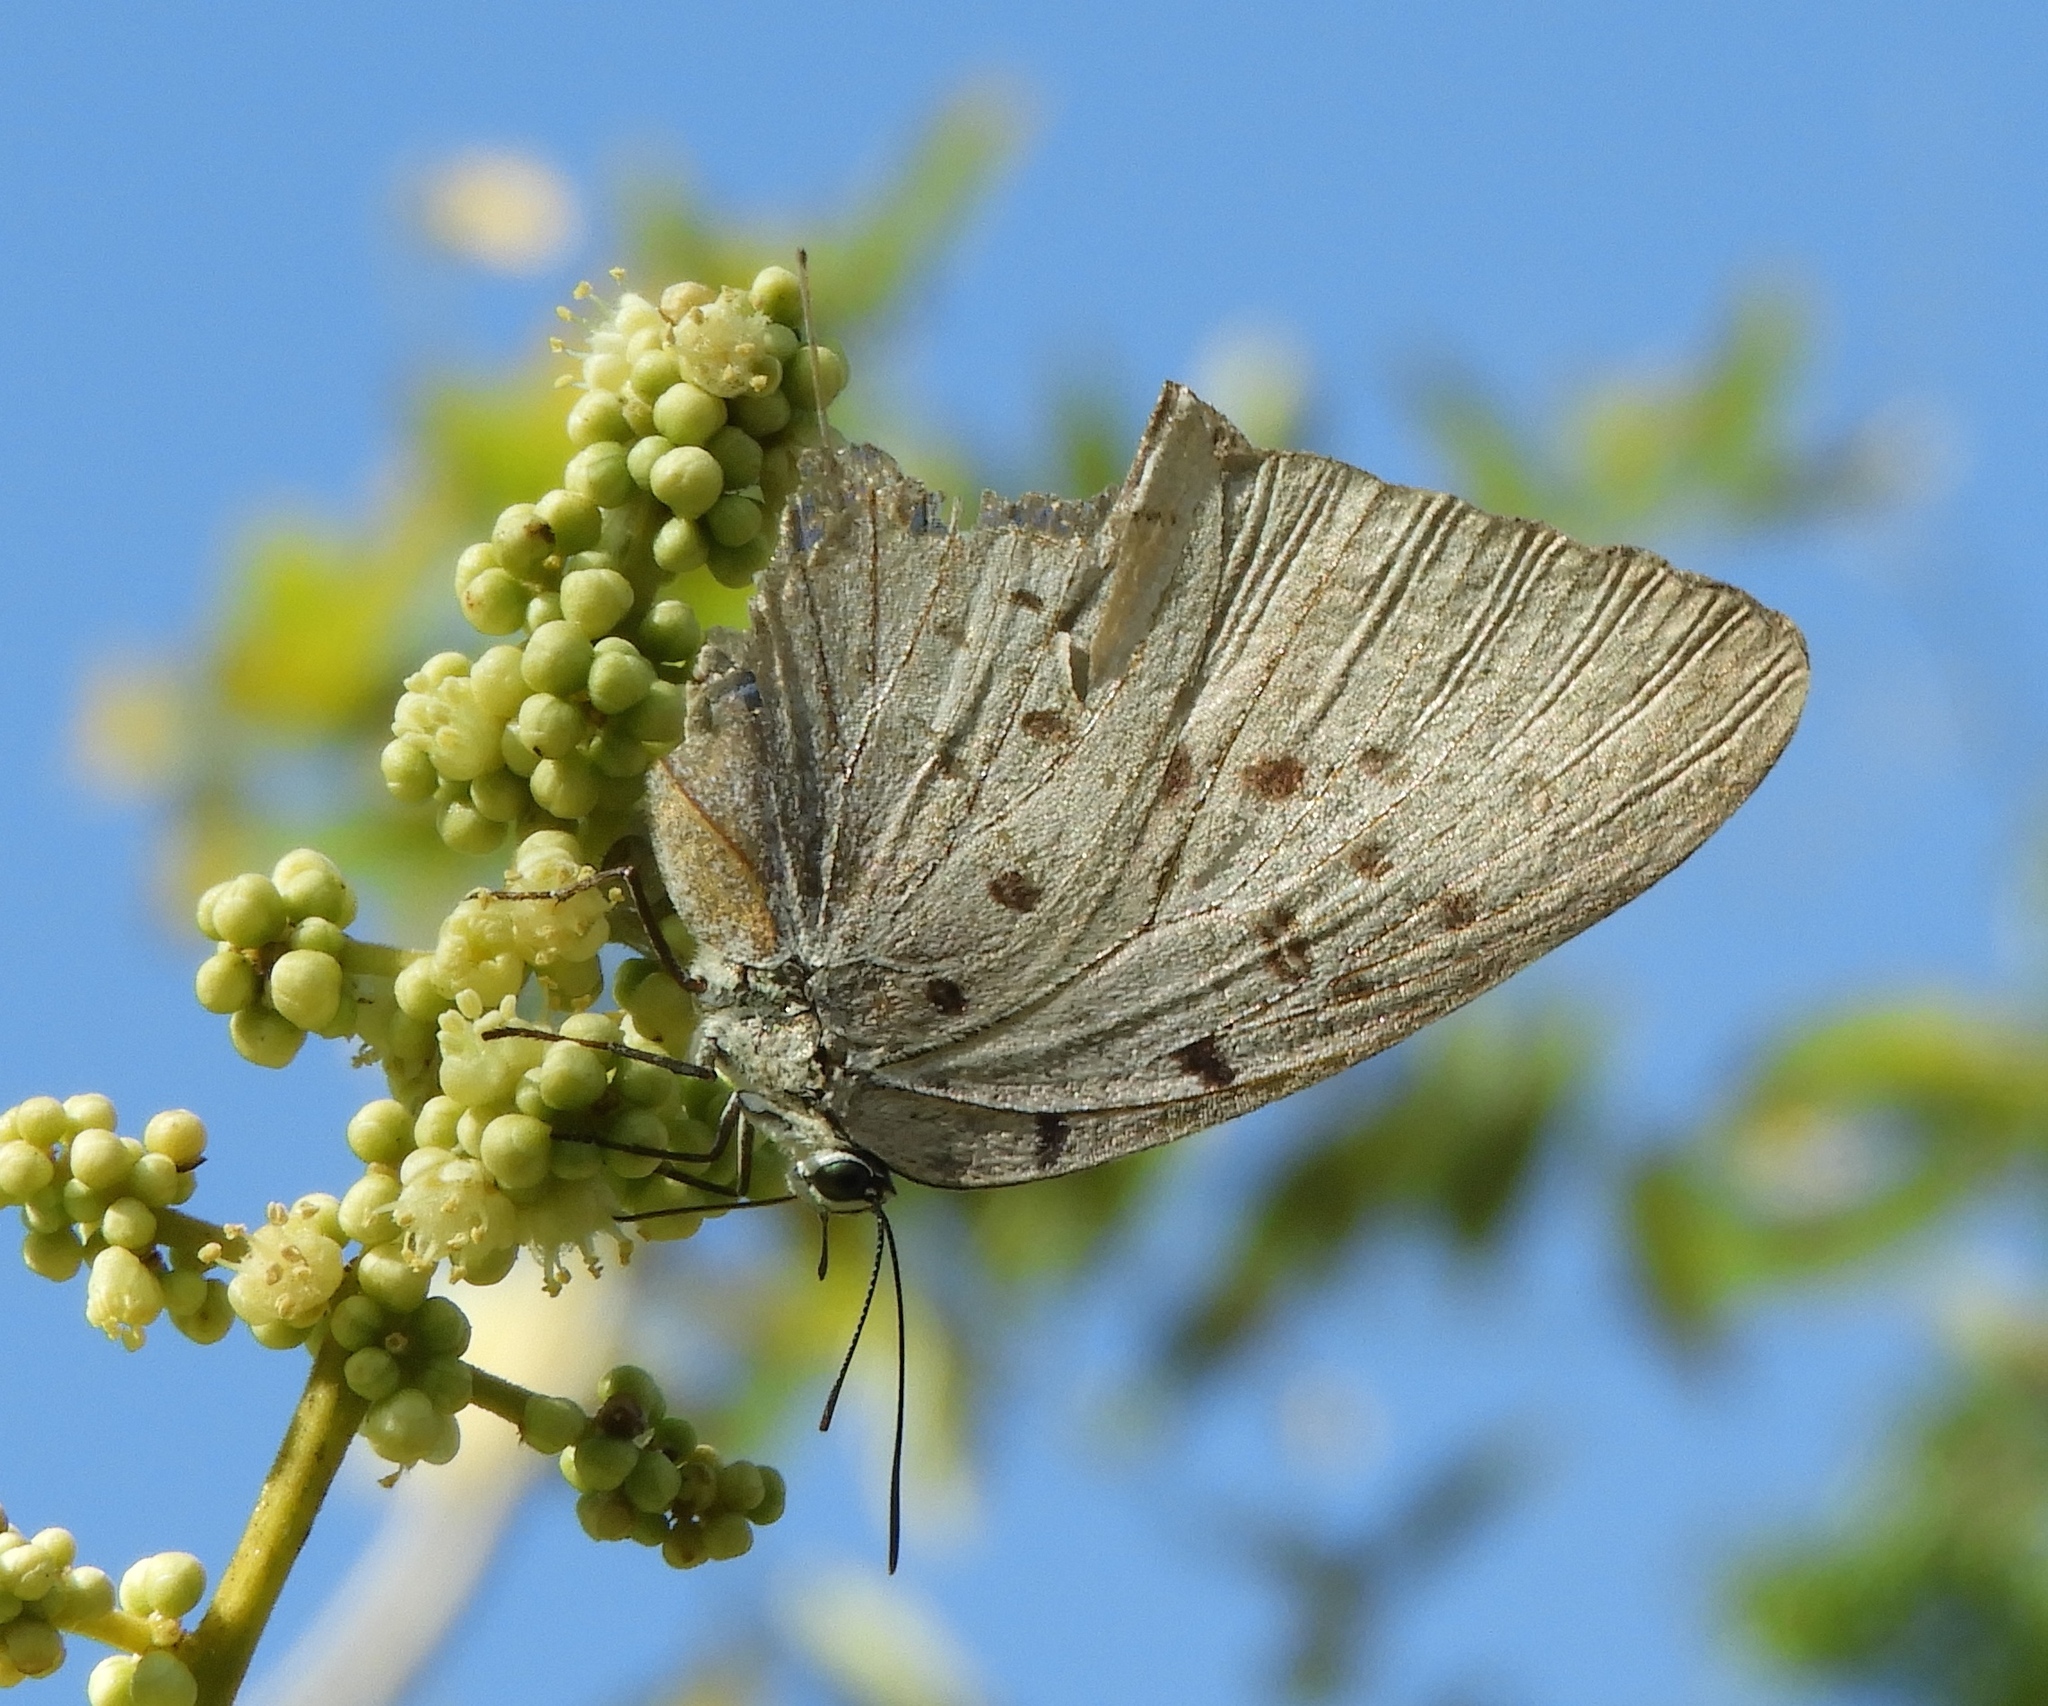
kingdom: Animalia
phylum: Arthropoda
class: Insecta
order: Lepidoptera
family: Lycaenidae
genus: Pseudolycaena
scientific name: Pseudolycaena damo
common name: Sky-blue hairstreak
